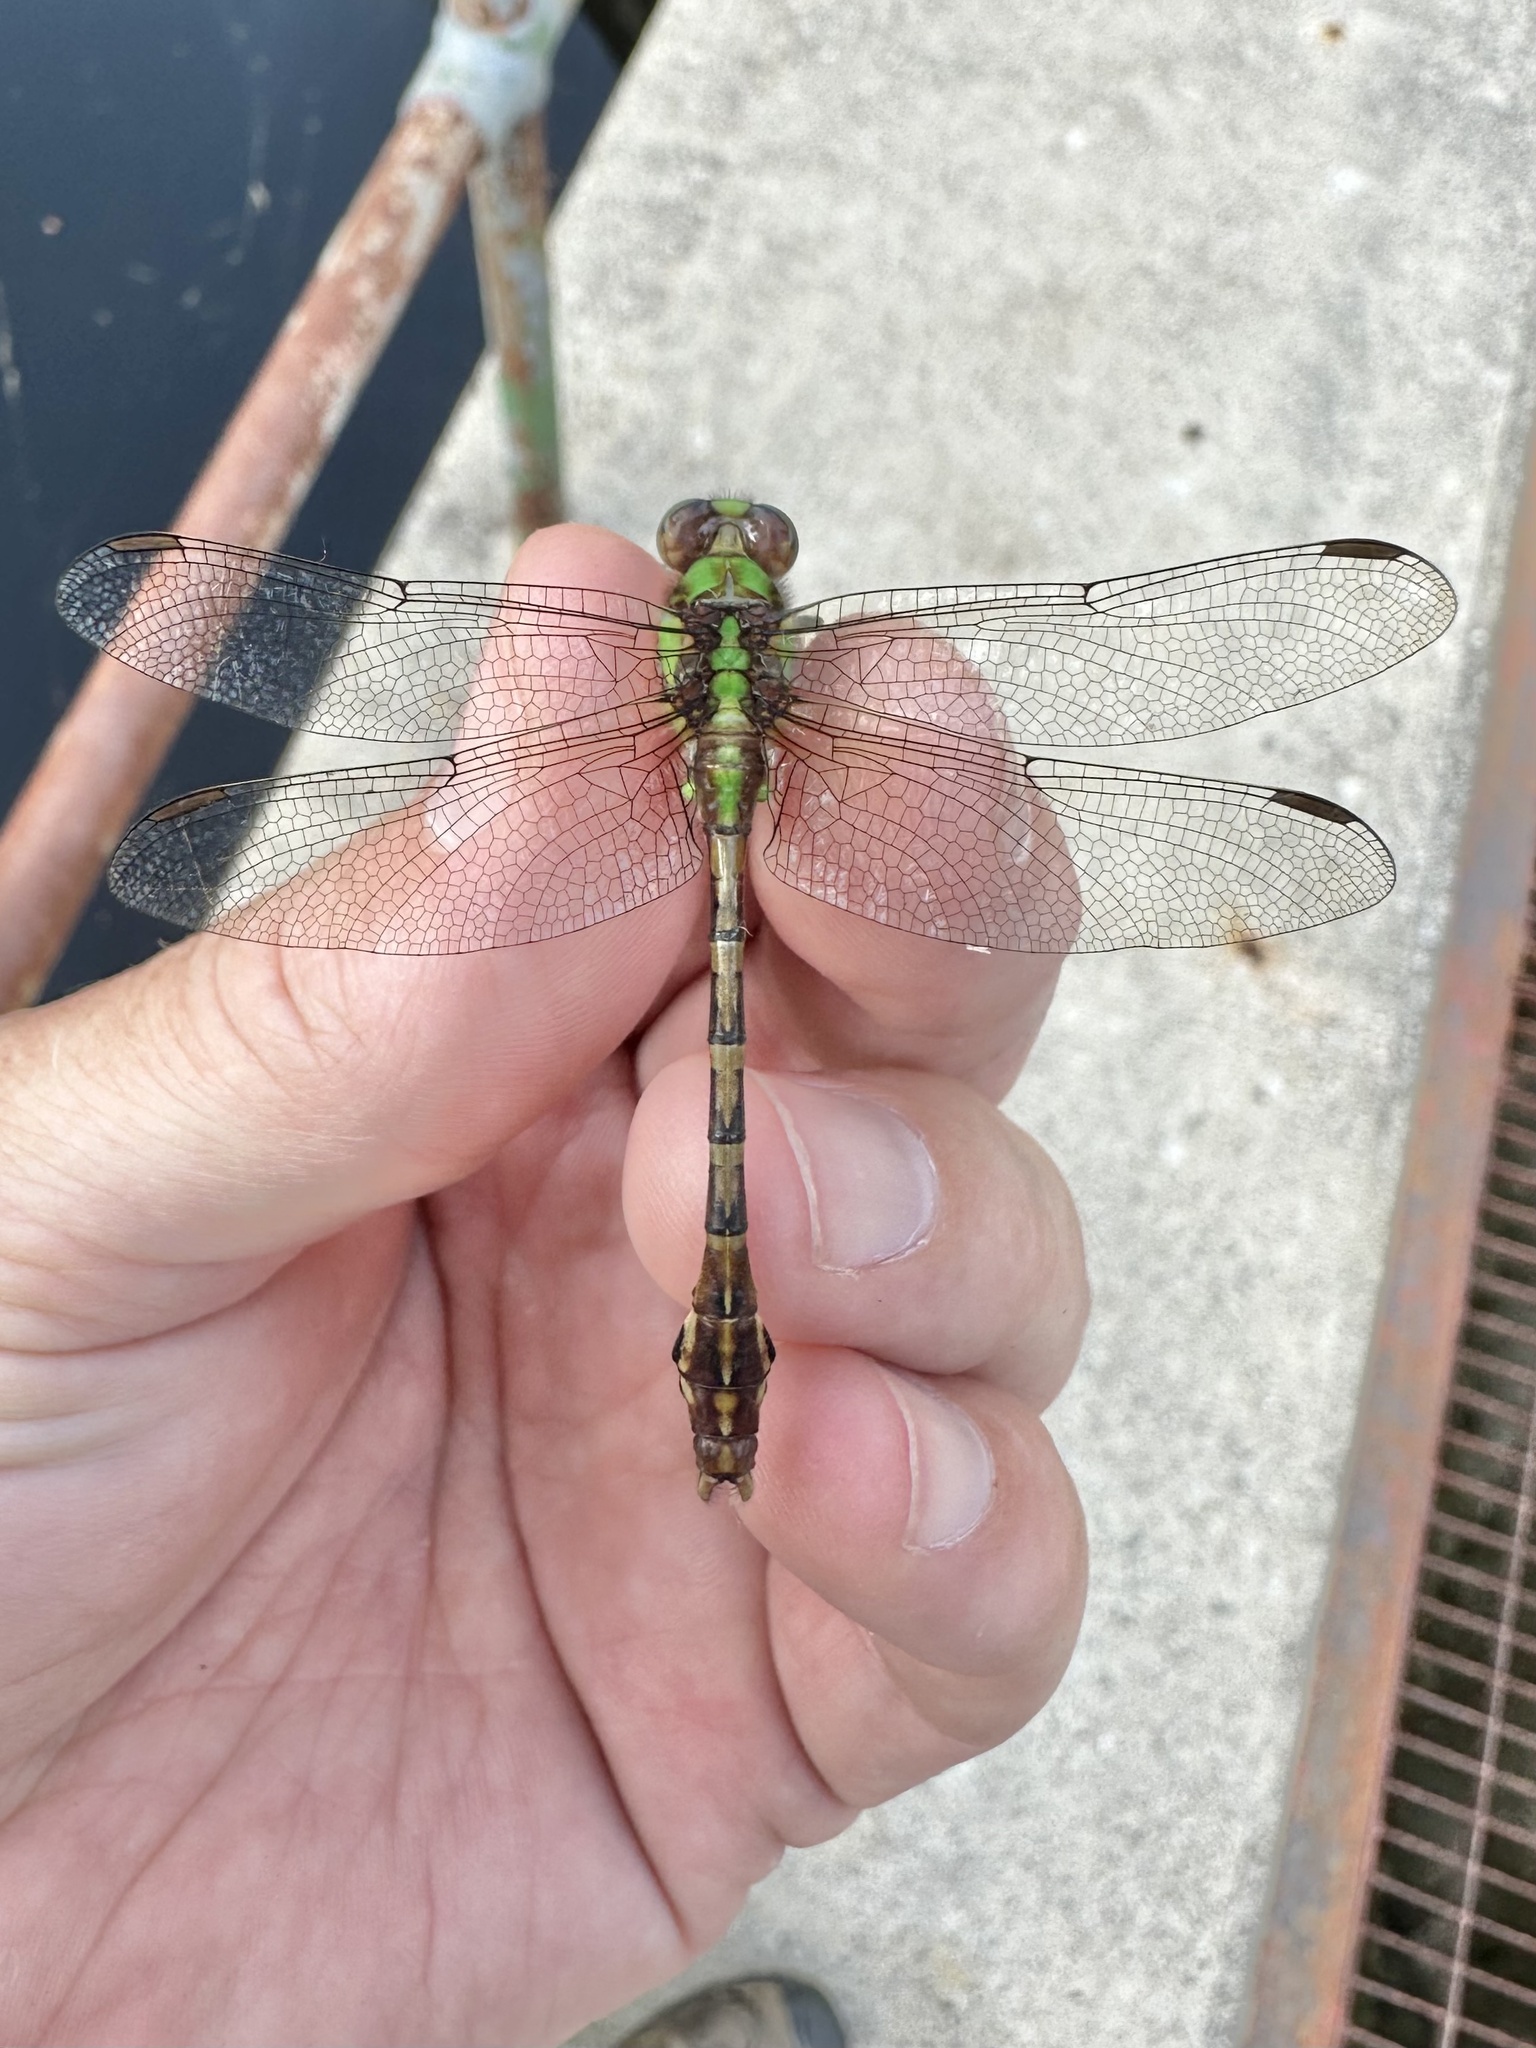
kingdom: Animalia
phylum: Arthropoda
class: Insecta
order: Odonata
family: Gomphidae
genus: Ophiogomphus
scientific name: Ophiogomphus rupinsulensis
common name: Rusty snaketail
